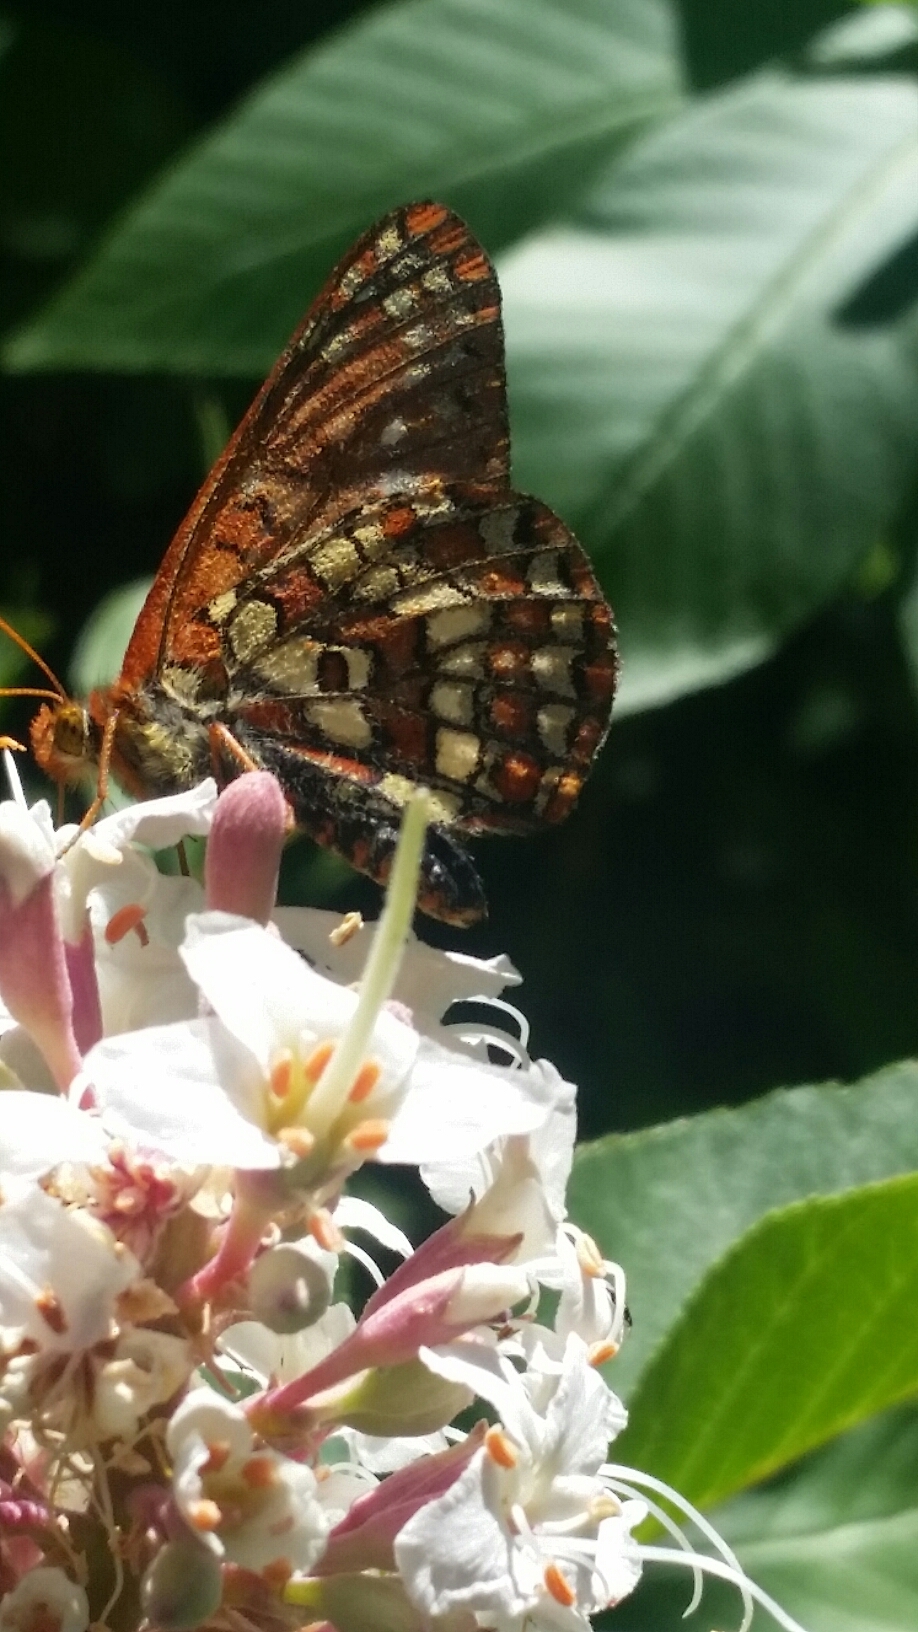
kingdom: Animalia
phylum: Arthropoda
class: Insecta
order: Lepidoptera
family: Nymphalidae
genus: Occidryas
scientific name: Occidryas chalcedona
